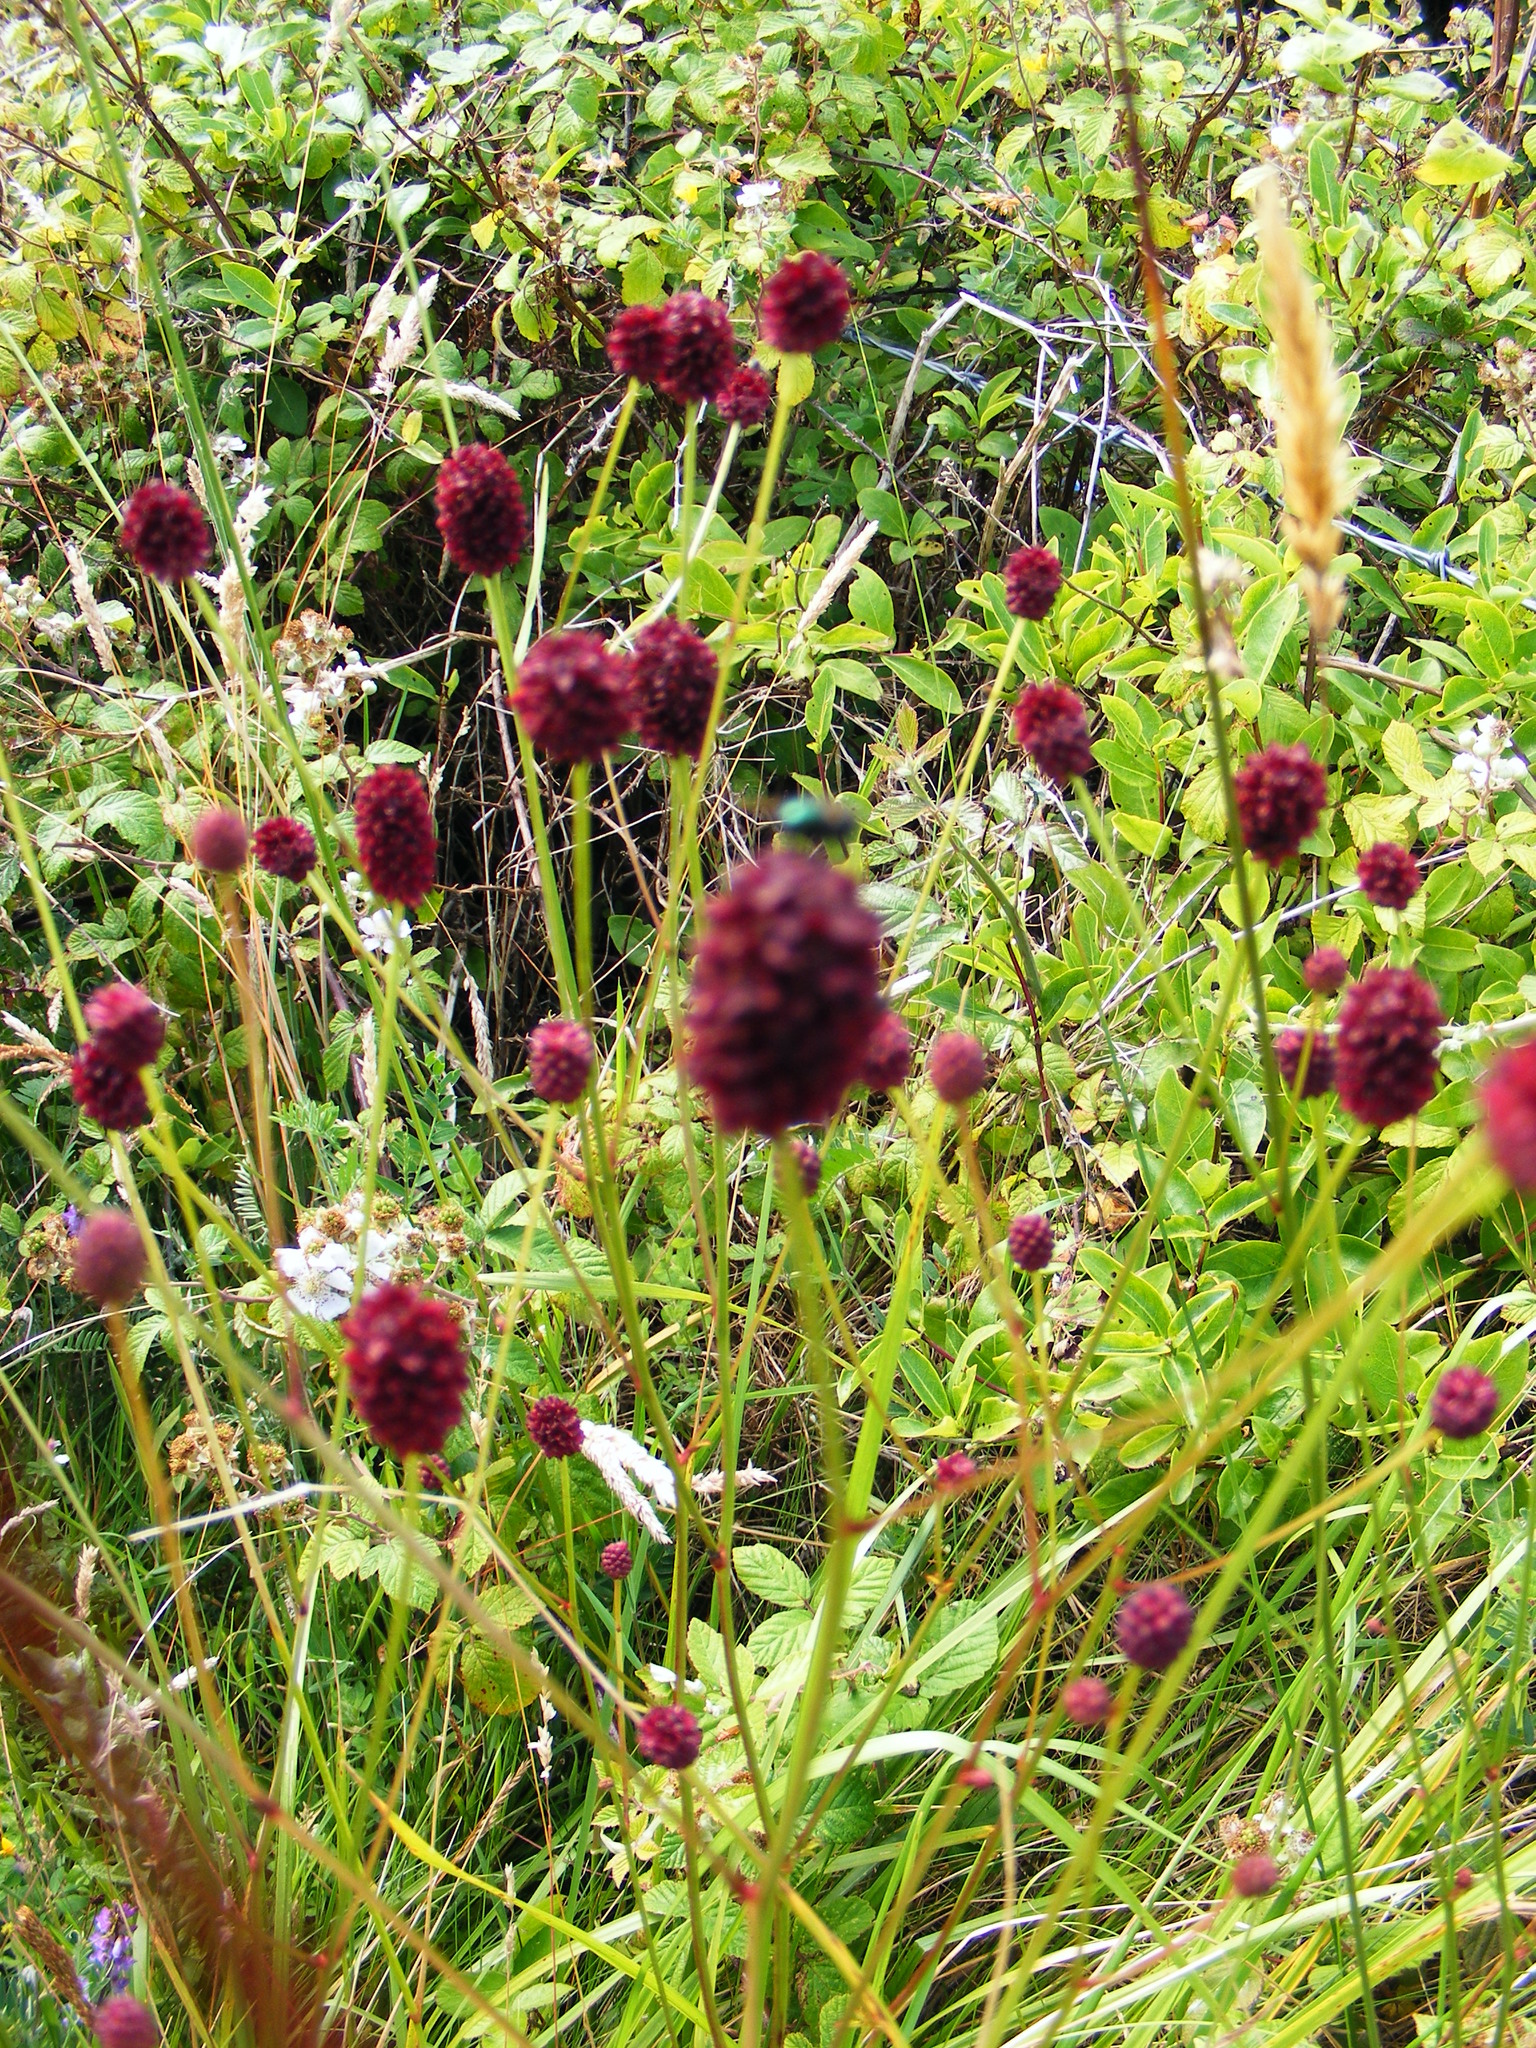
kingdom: Plantae
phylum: Tracheophyta
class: Magnoliopsida
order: Rosales
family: Rosaceae
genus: Sanguisorba
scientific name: Sanguisorba officinalis
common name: Great burnet
